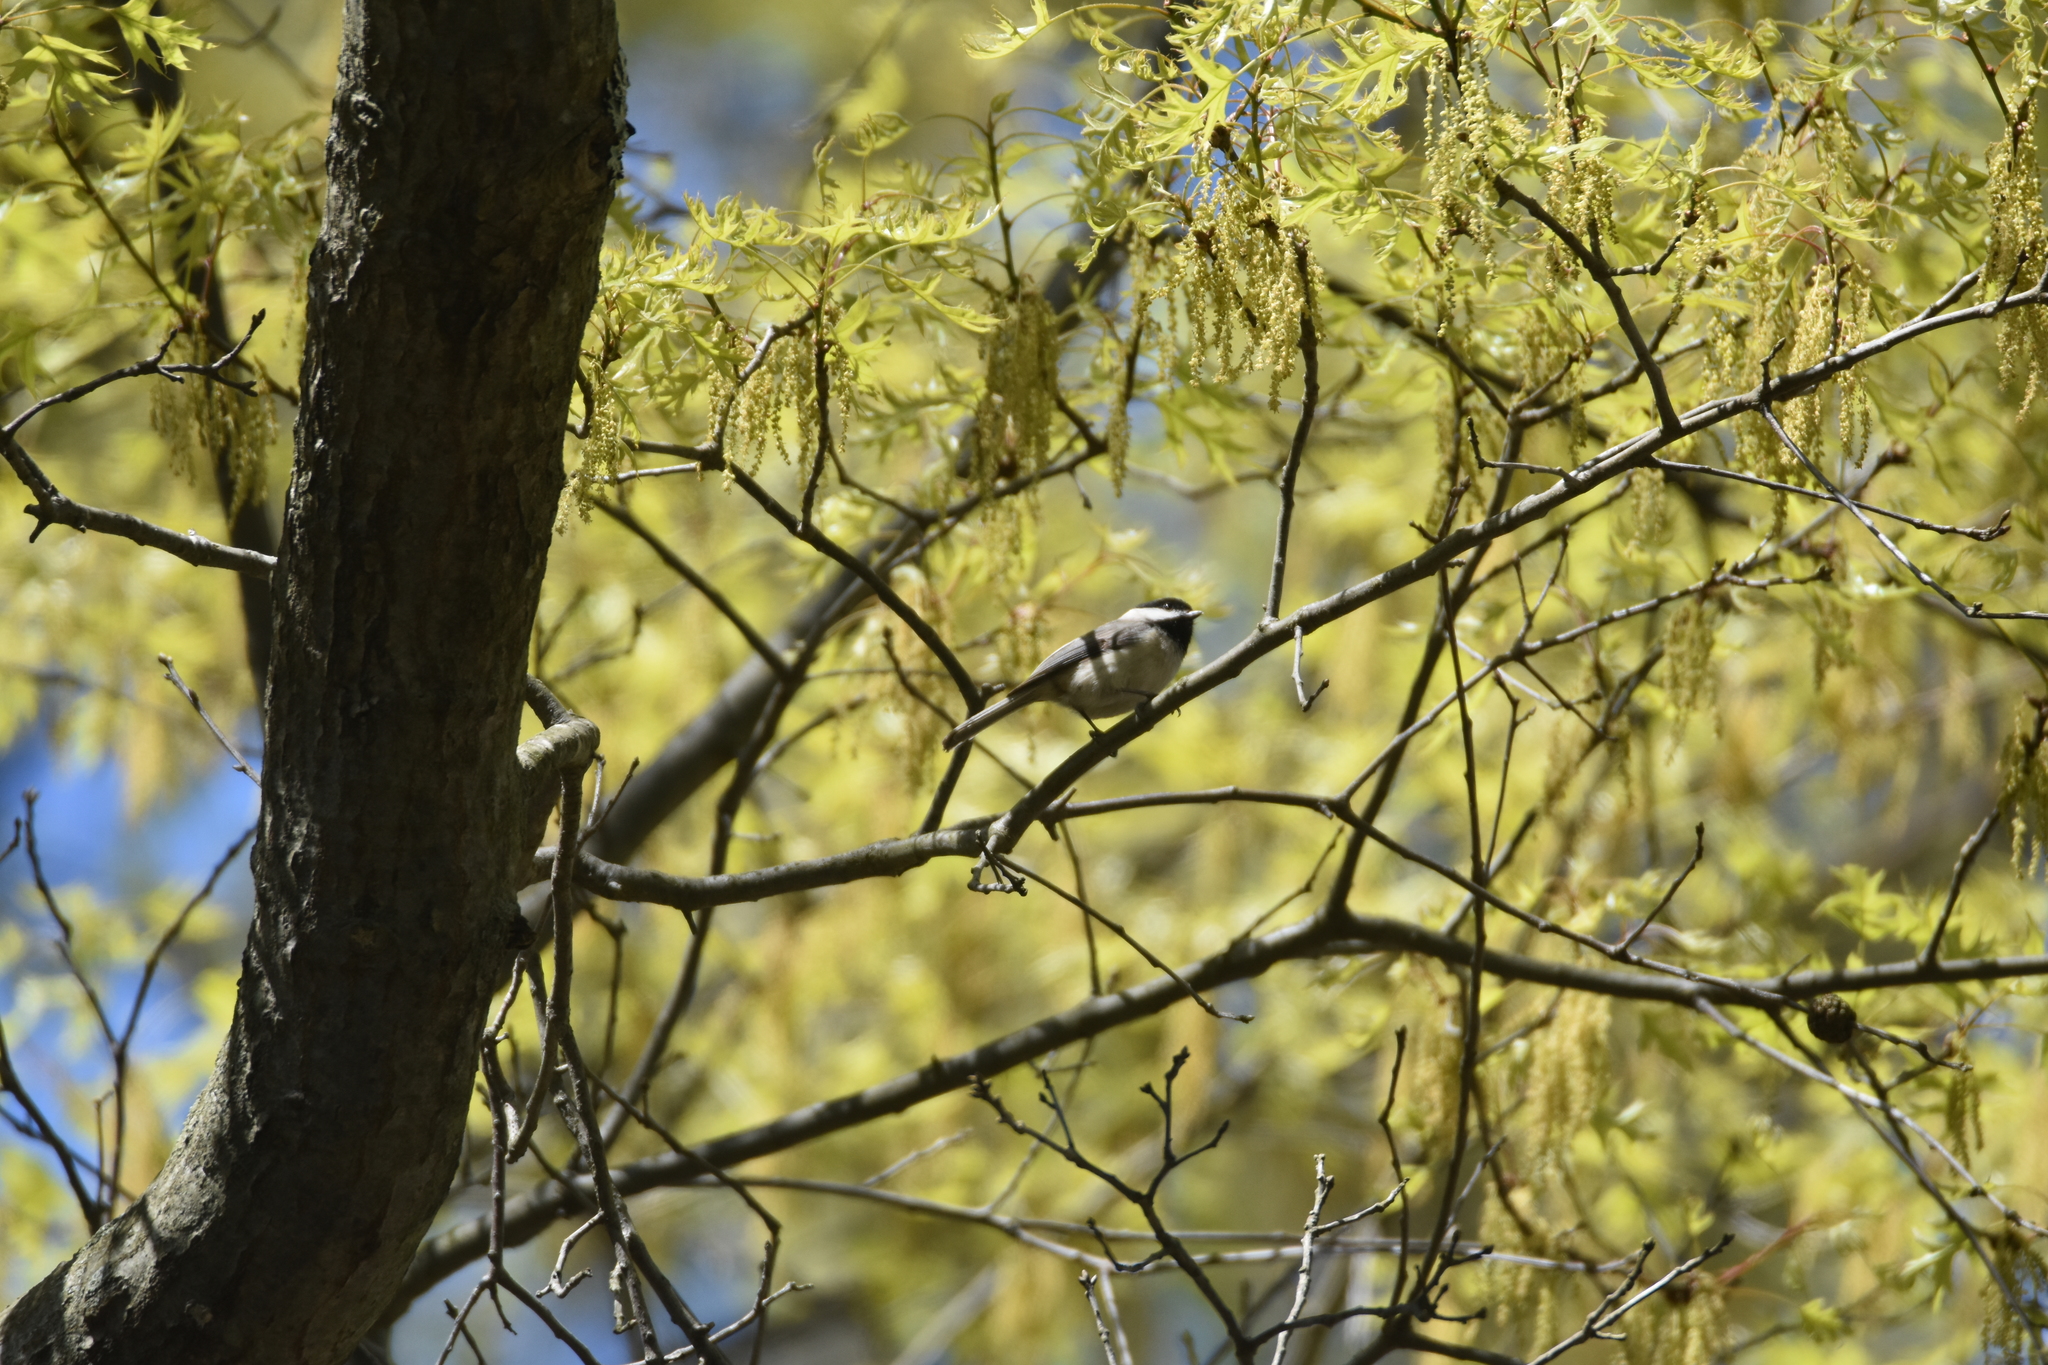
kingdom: Animalia
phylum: Chordata
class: Aves
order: Passeriformes
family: Paridae
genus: Poecile
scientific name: Poecile carolinensis
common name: Carolina chickadee
